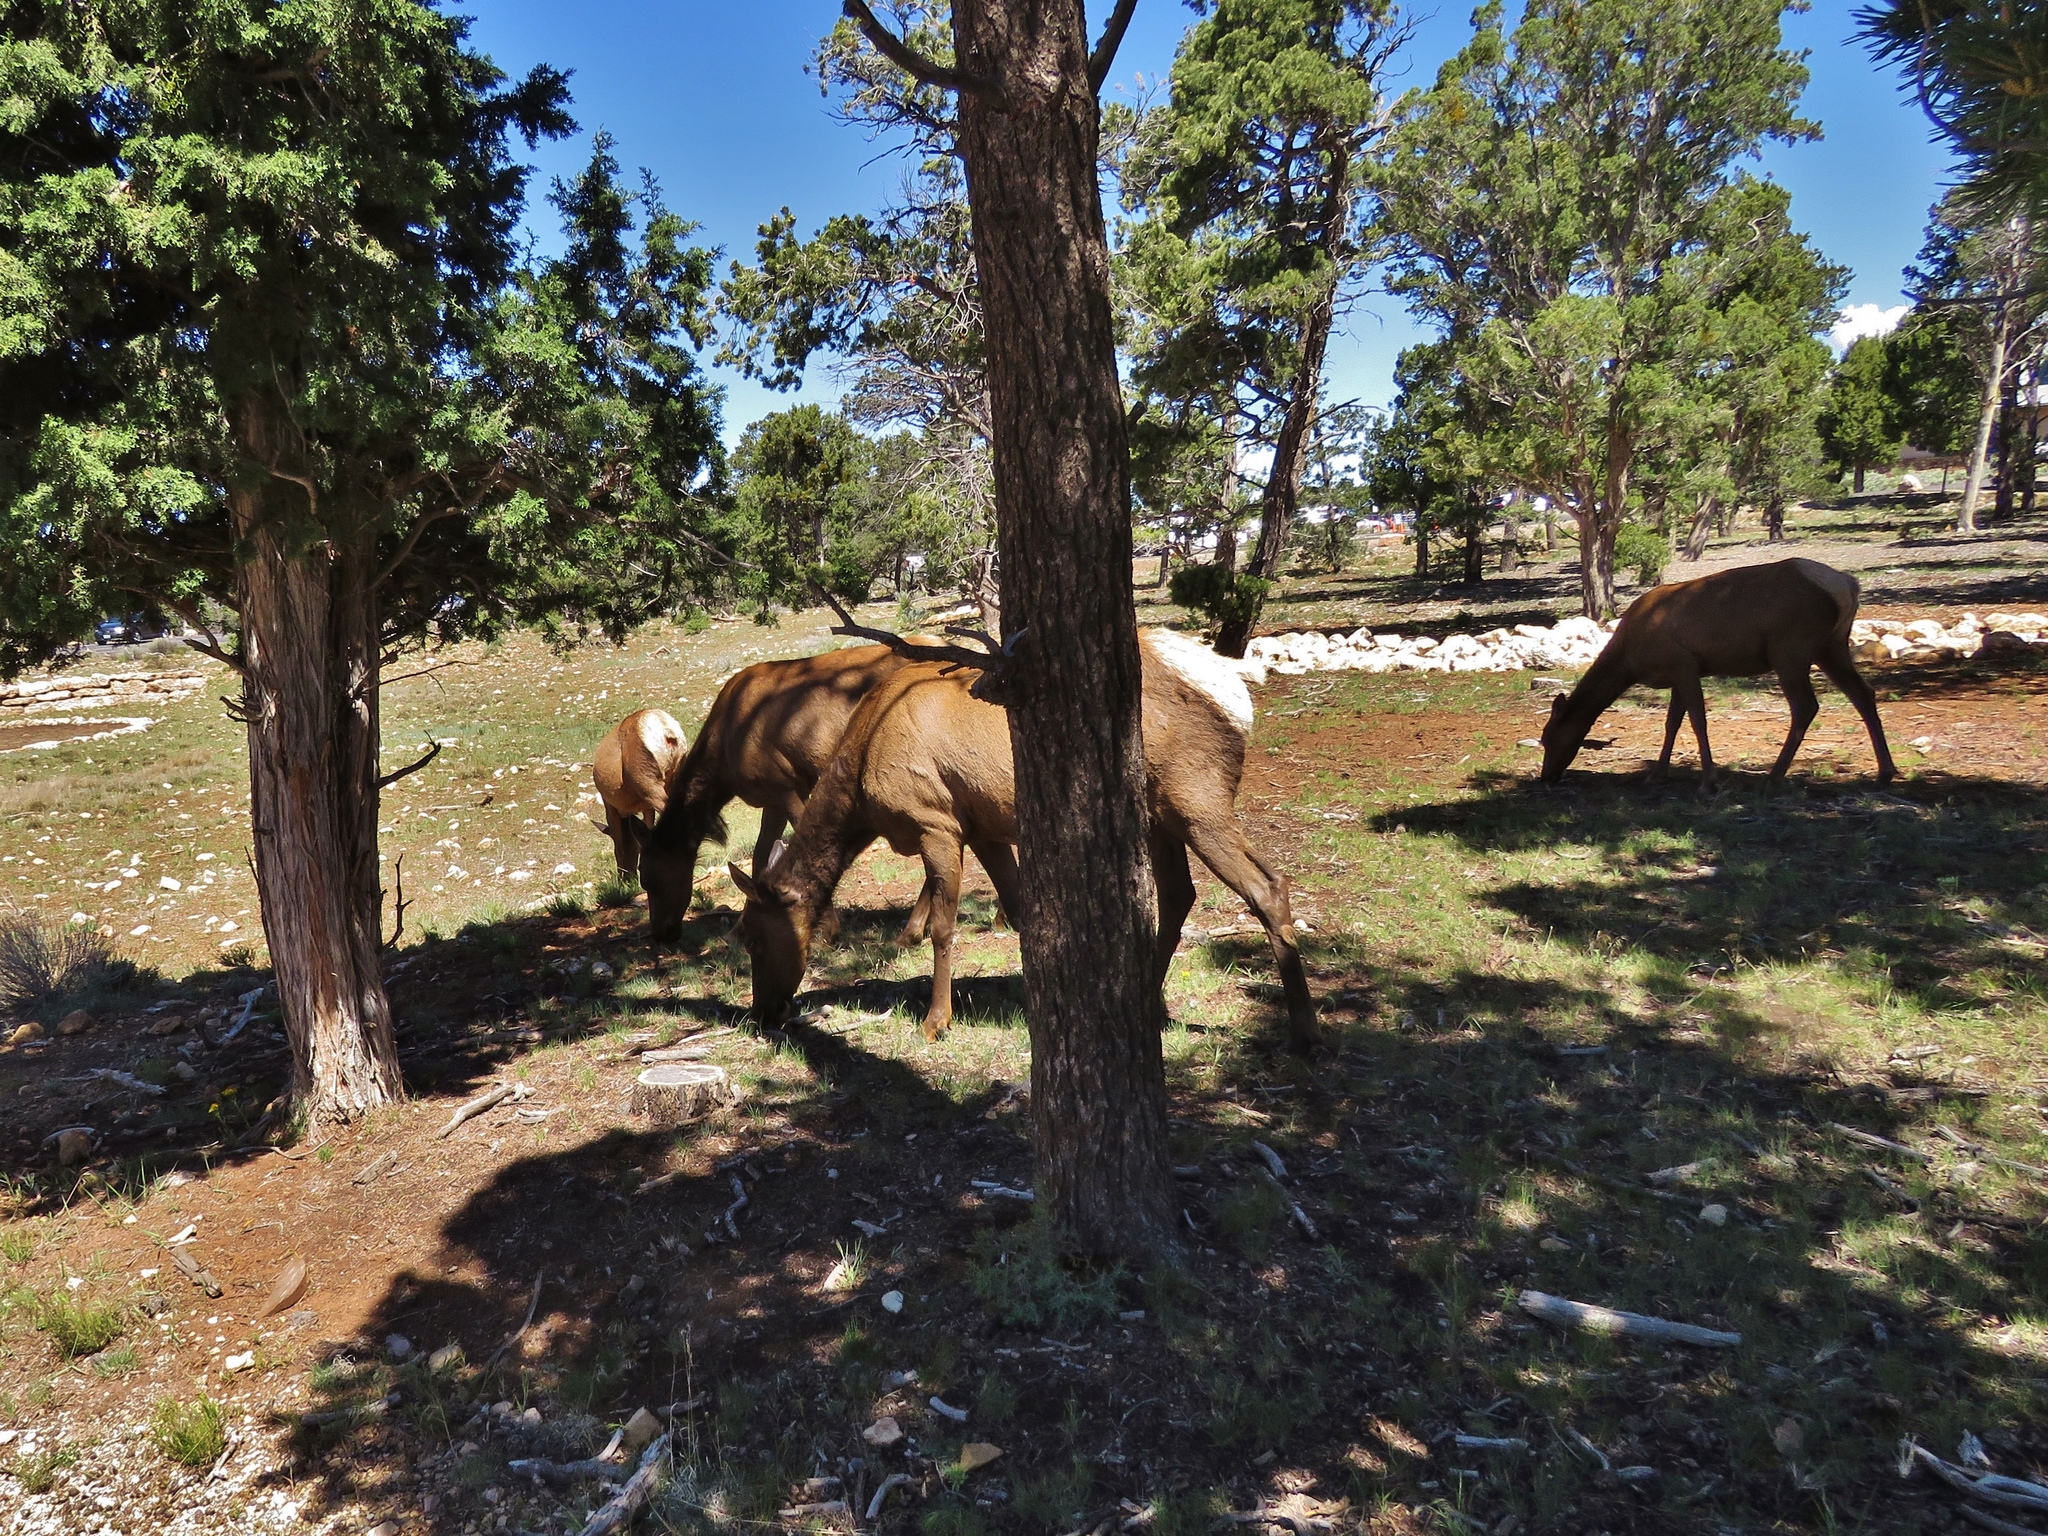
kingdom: Animalia
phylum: Chordata
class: Mammalia
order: Artiodactyla
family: Cervidae
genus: Cervus
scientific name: Cervus elaphus
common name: Red deer
